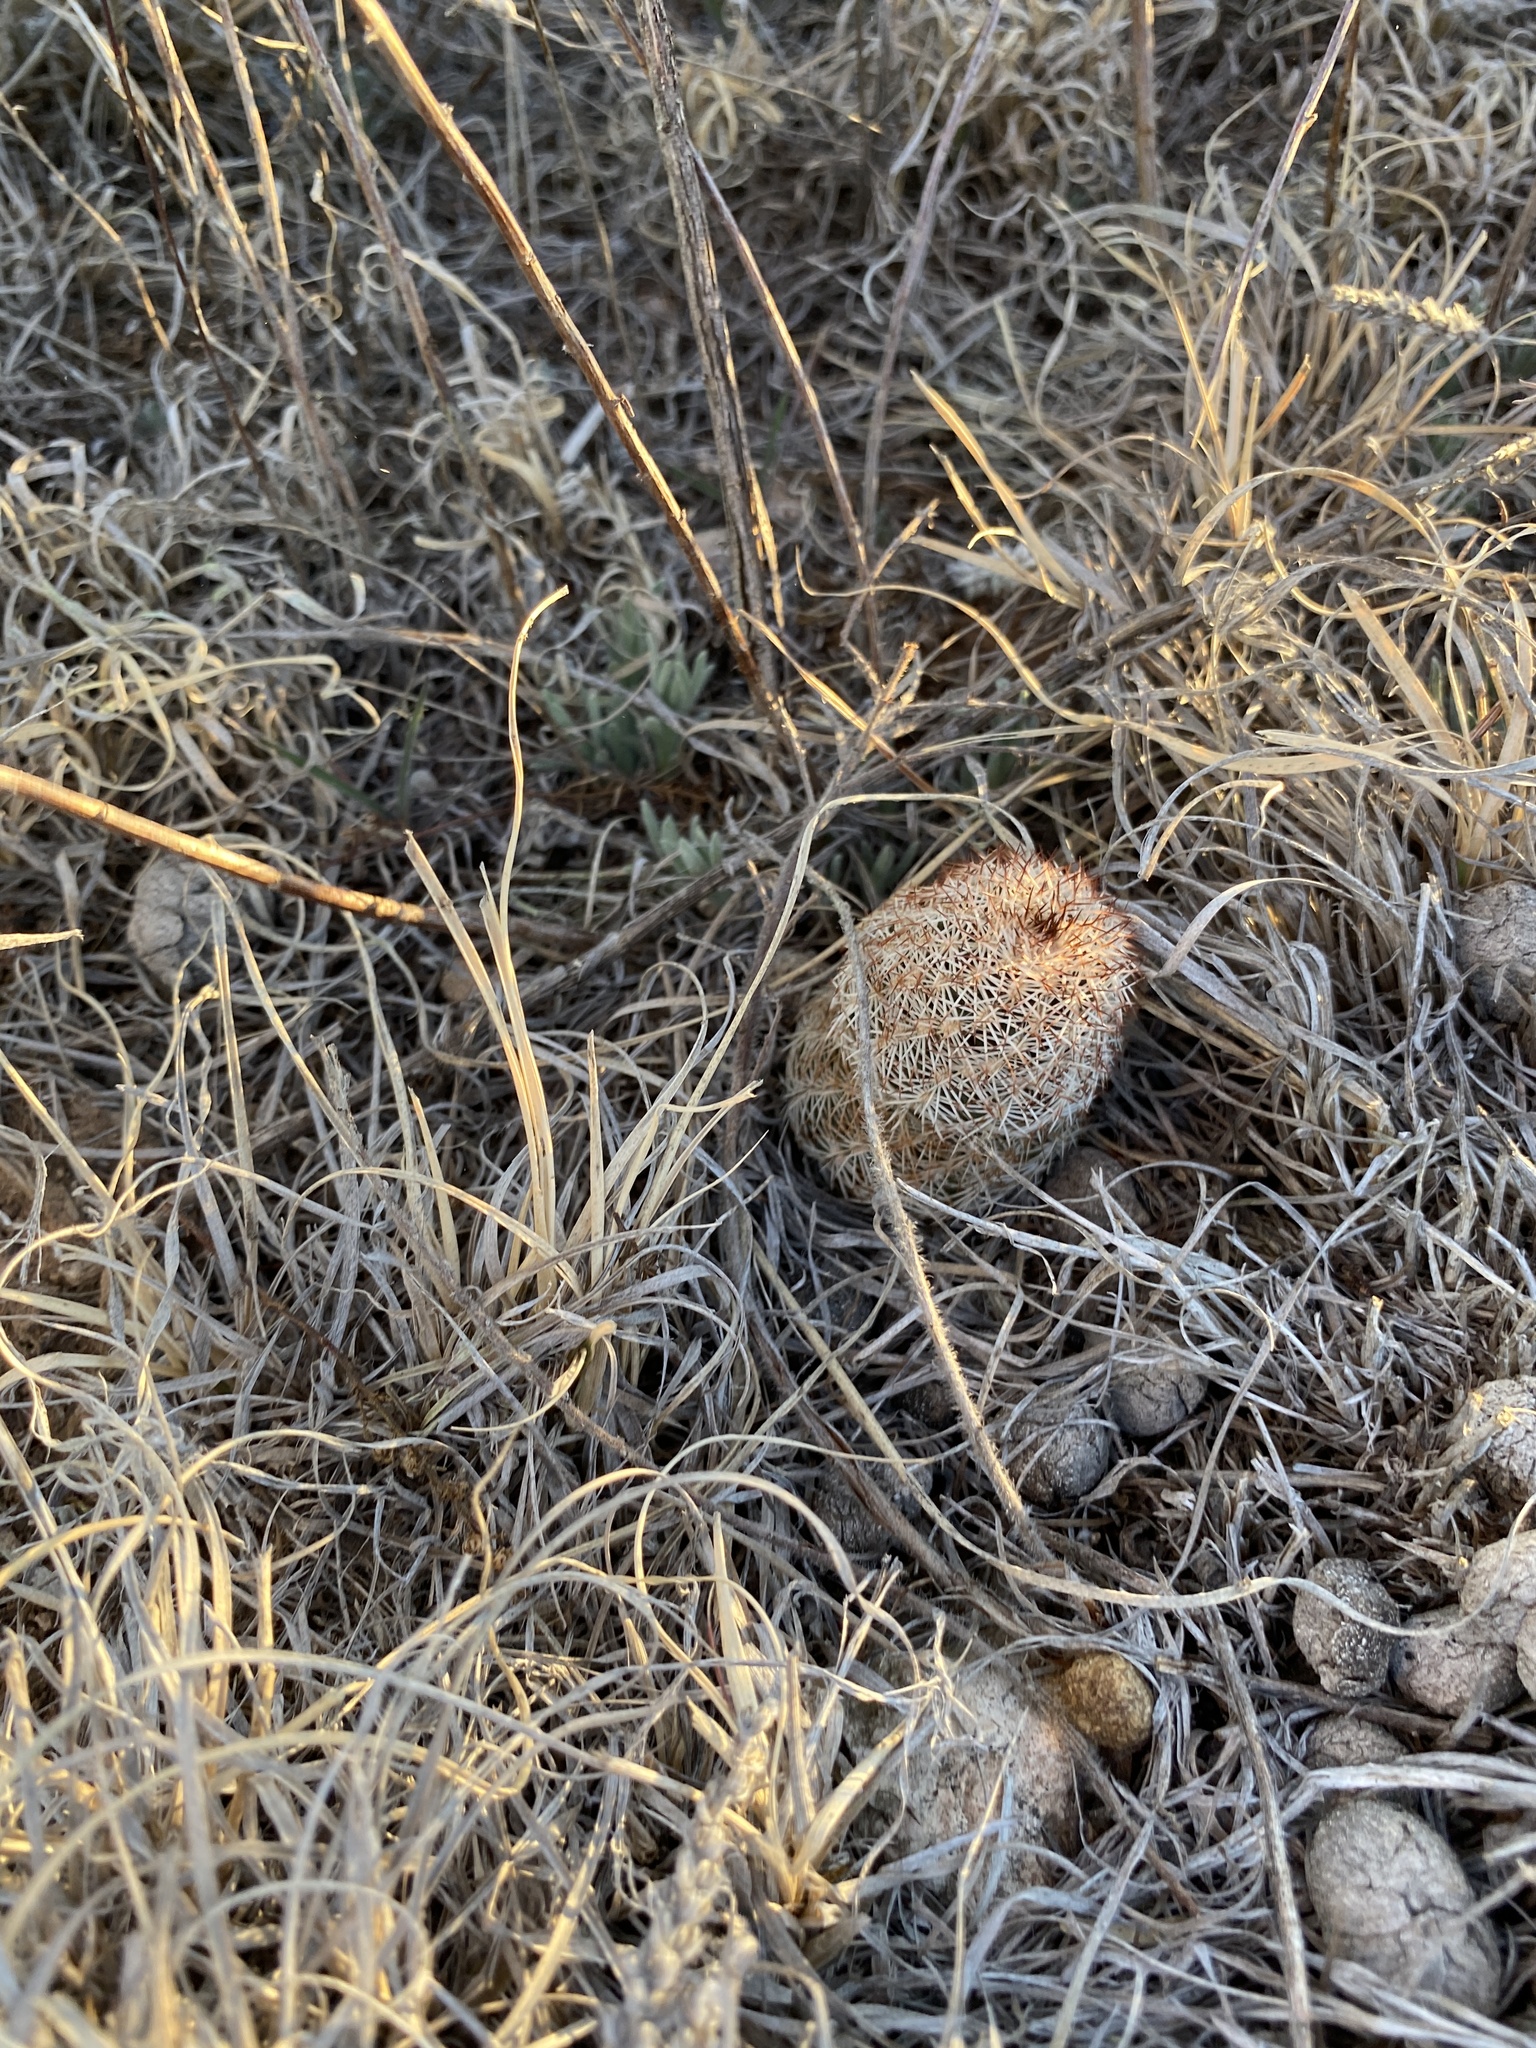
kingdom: Plantae
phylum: Tracheophyta
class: Magnoliopsida
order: Caryophyllales
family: Cactaceae
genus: Echinocereus
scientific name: Echinocereus reichenbachii
